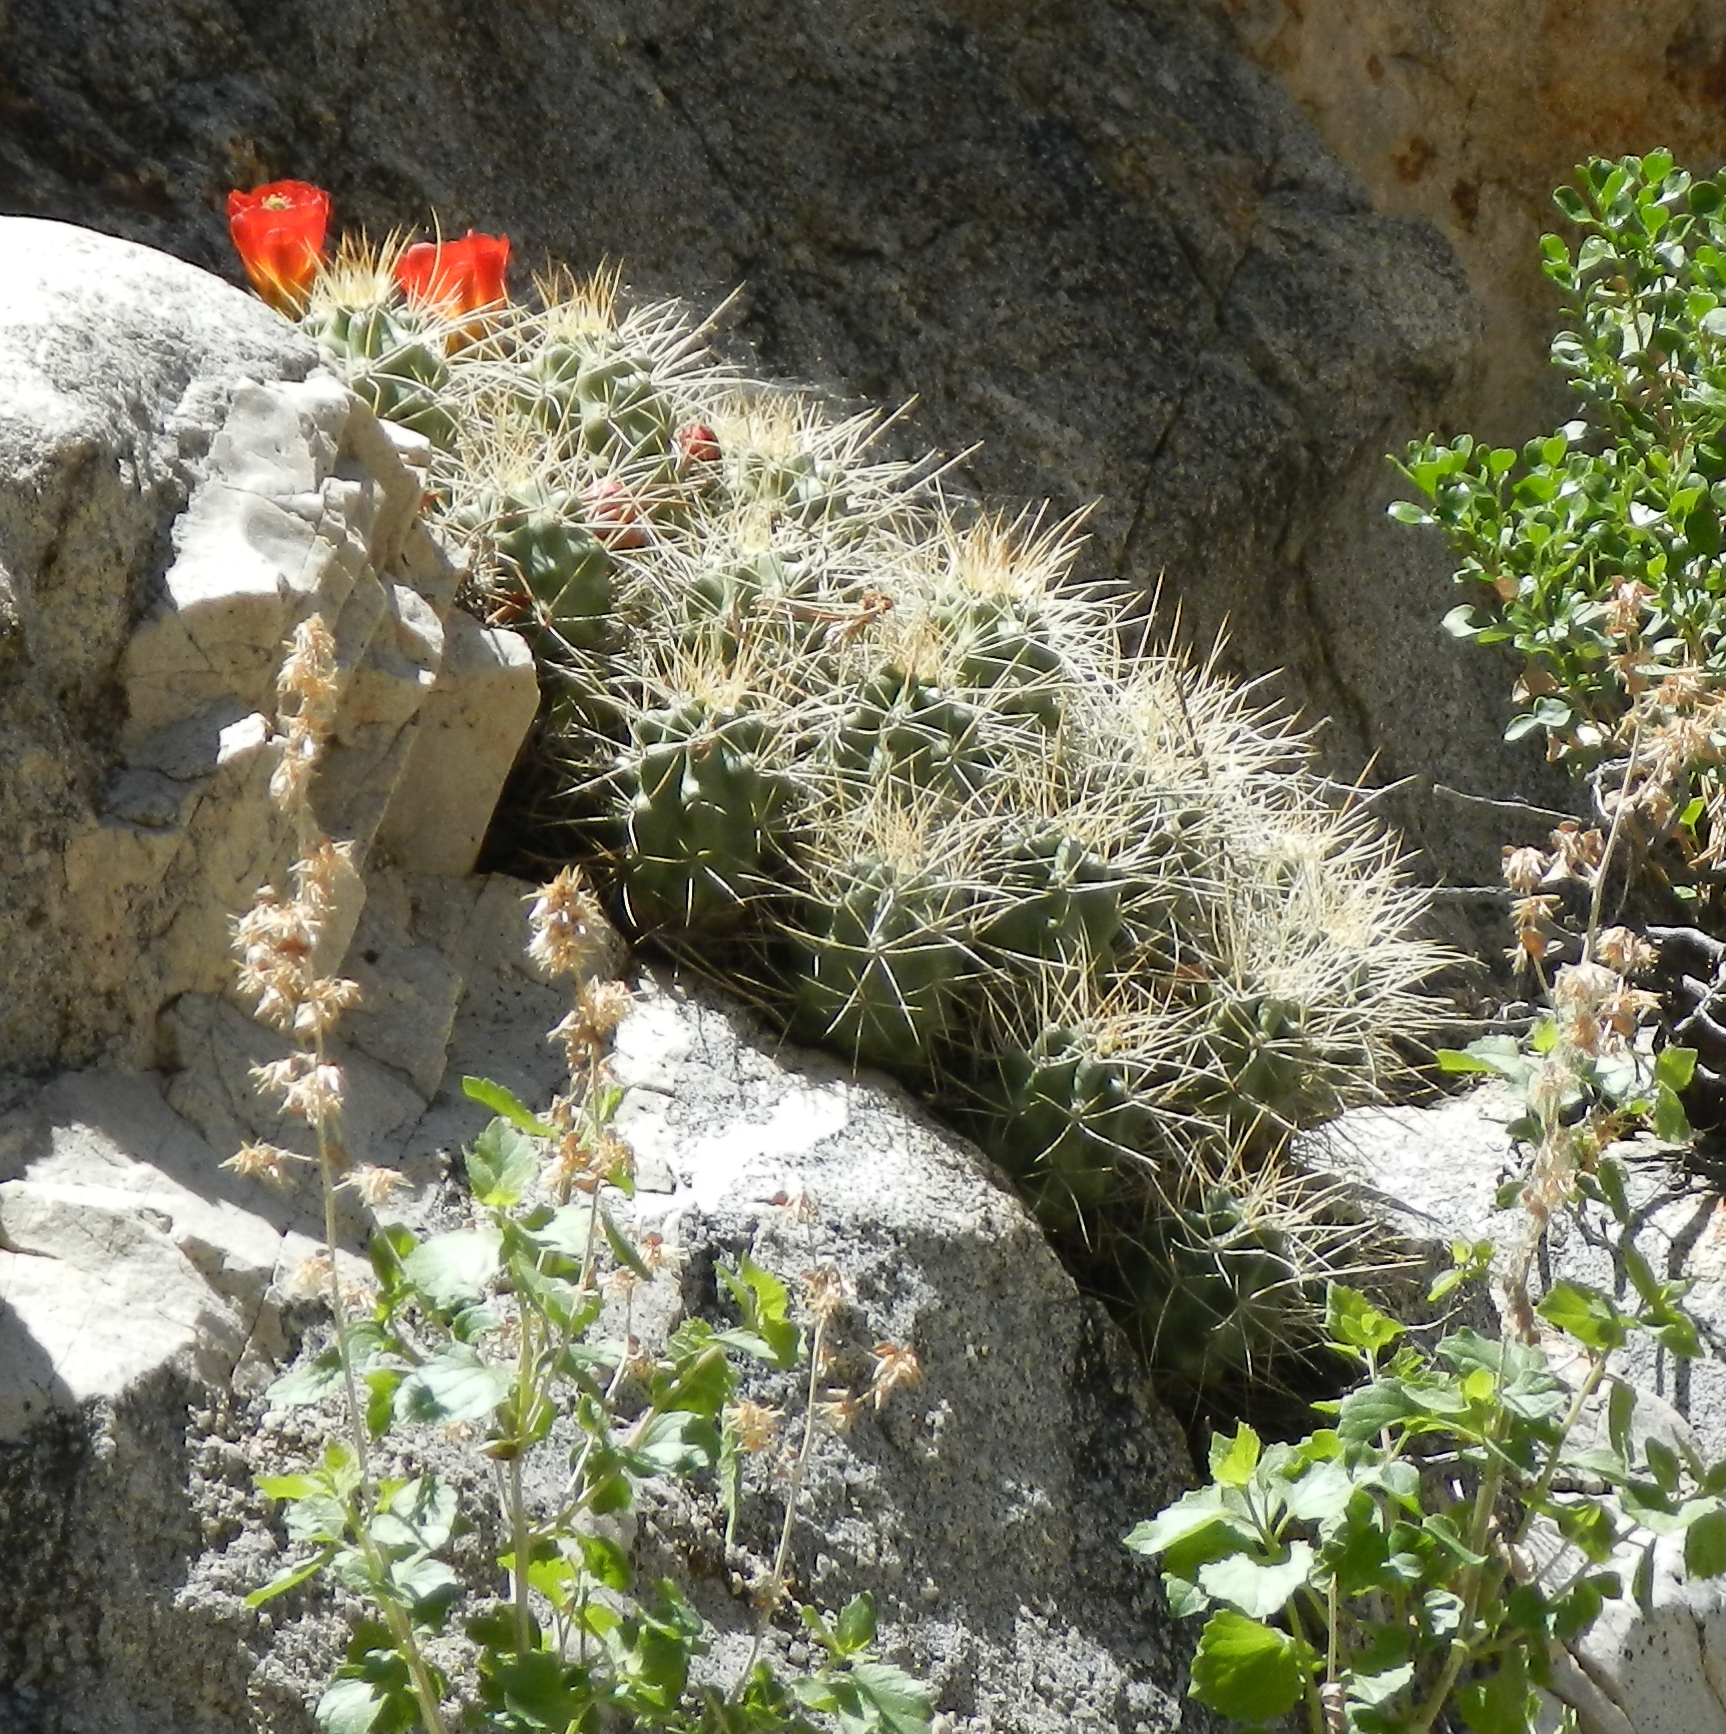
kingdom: Plantae
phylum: Tracheophyta
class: Magnoliopsida
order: Caryophyllales
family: Cactaceae
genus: Echinocereus
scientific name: Echinocereus triglochidiatus
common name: Claretcup hedgehog
